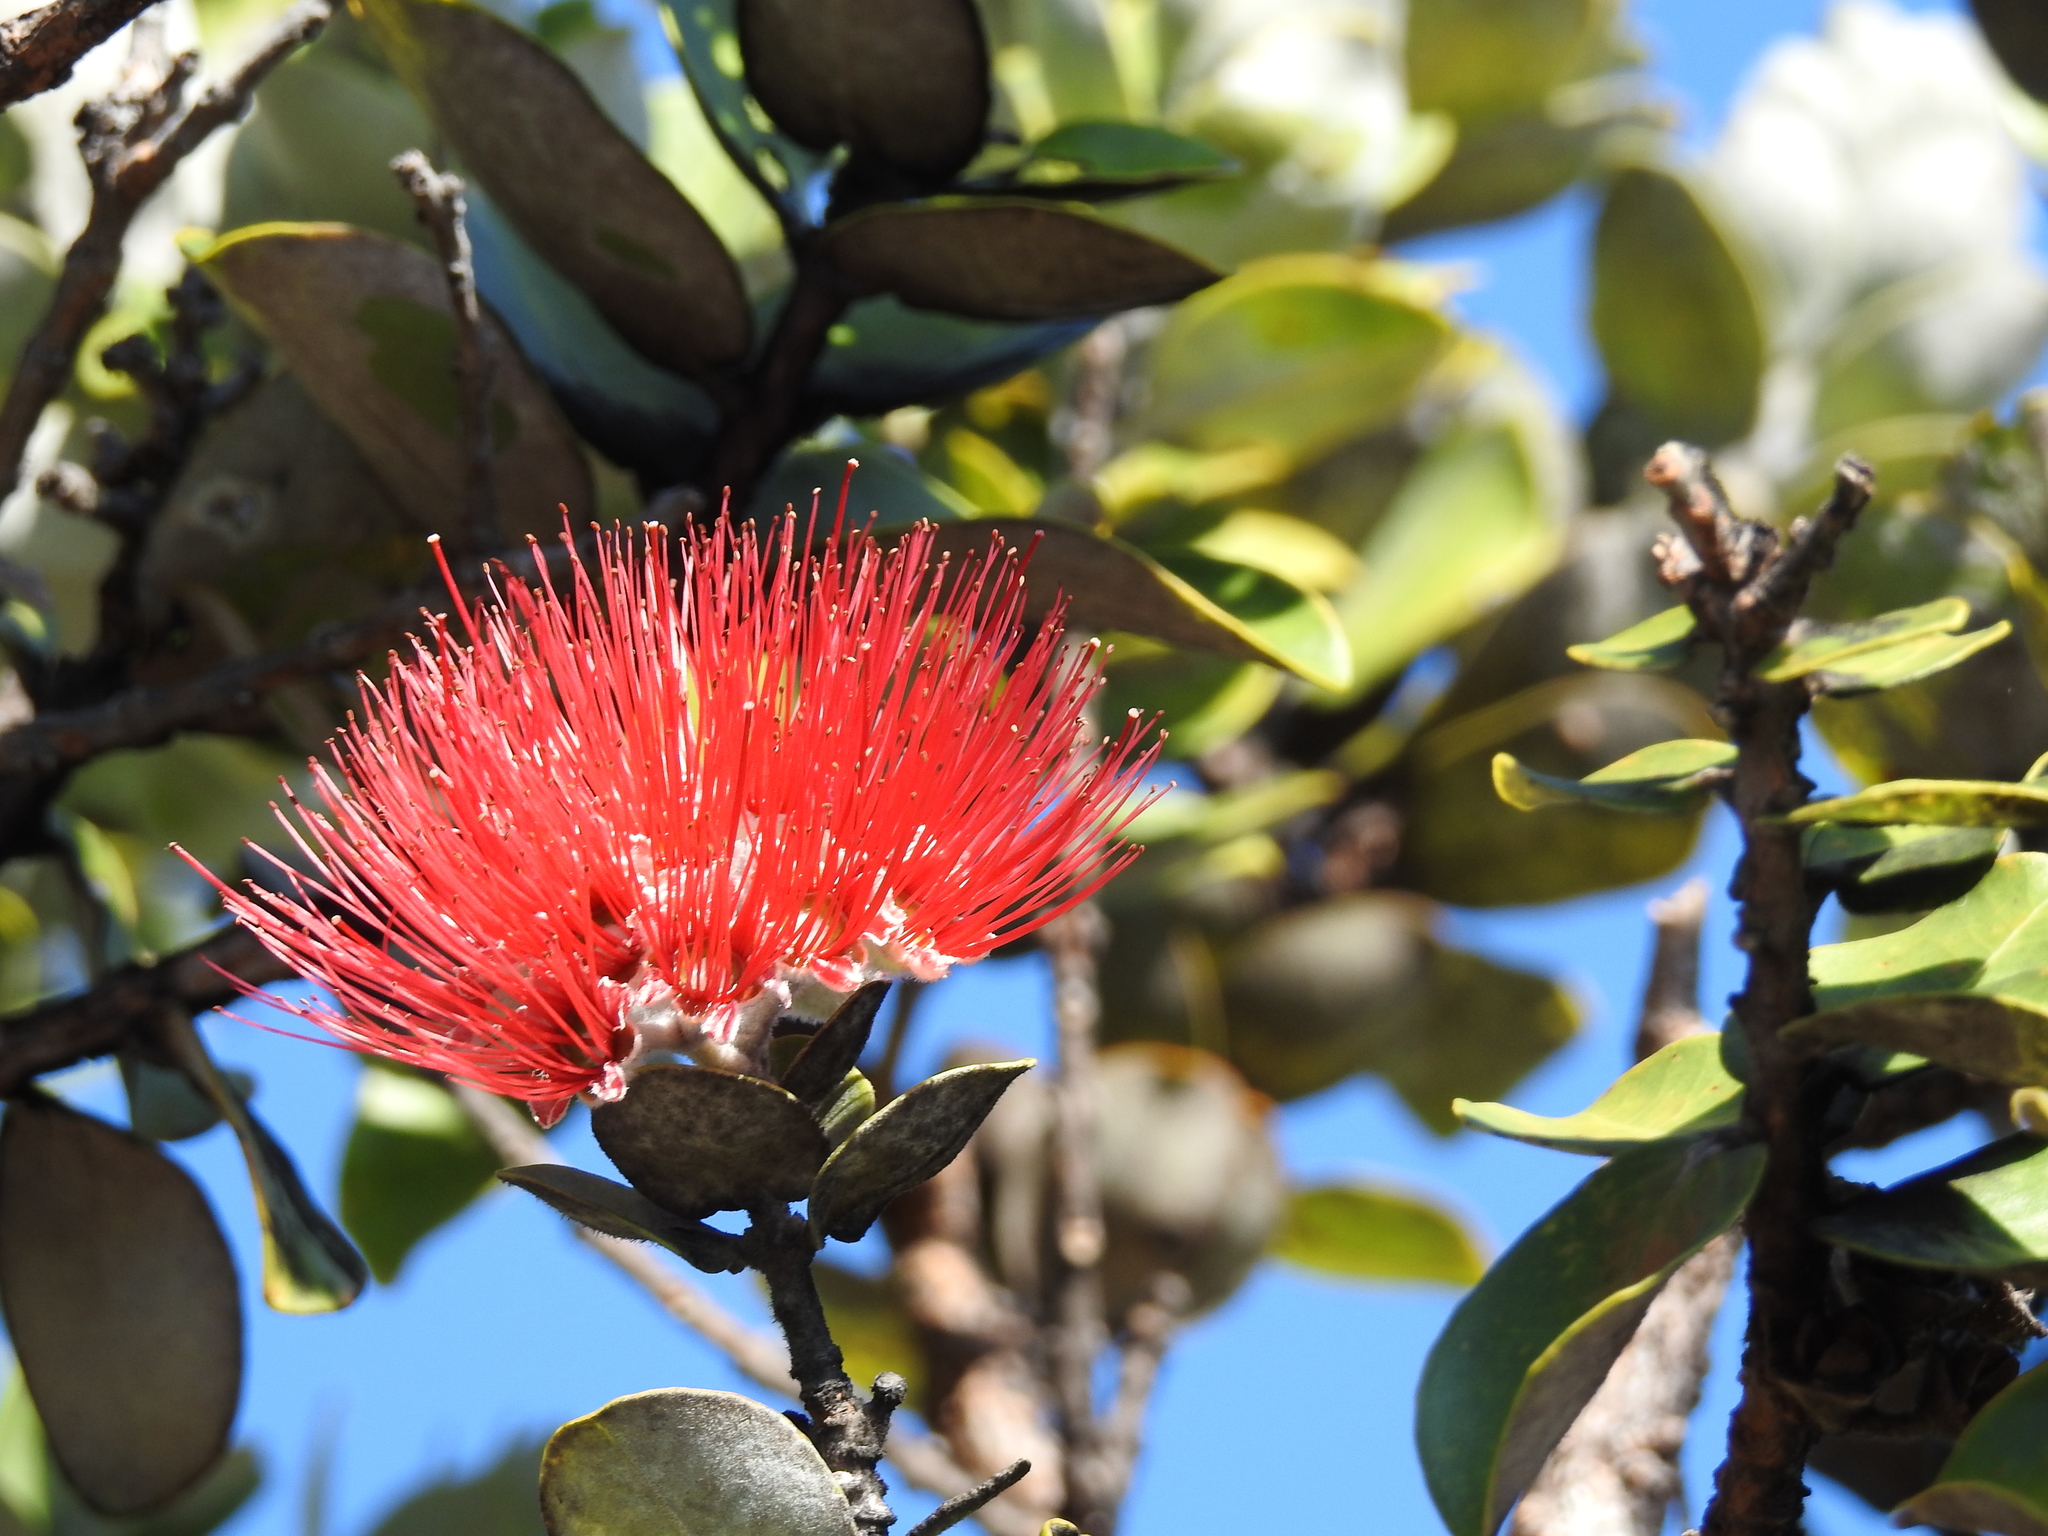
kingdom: Plantae
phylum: Tracheophyta
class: Magnoliopsida
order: Myrtales
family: Myrtaceae
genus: Metrosideros
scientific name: Metrosideros polymorpha
